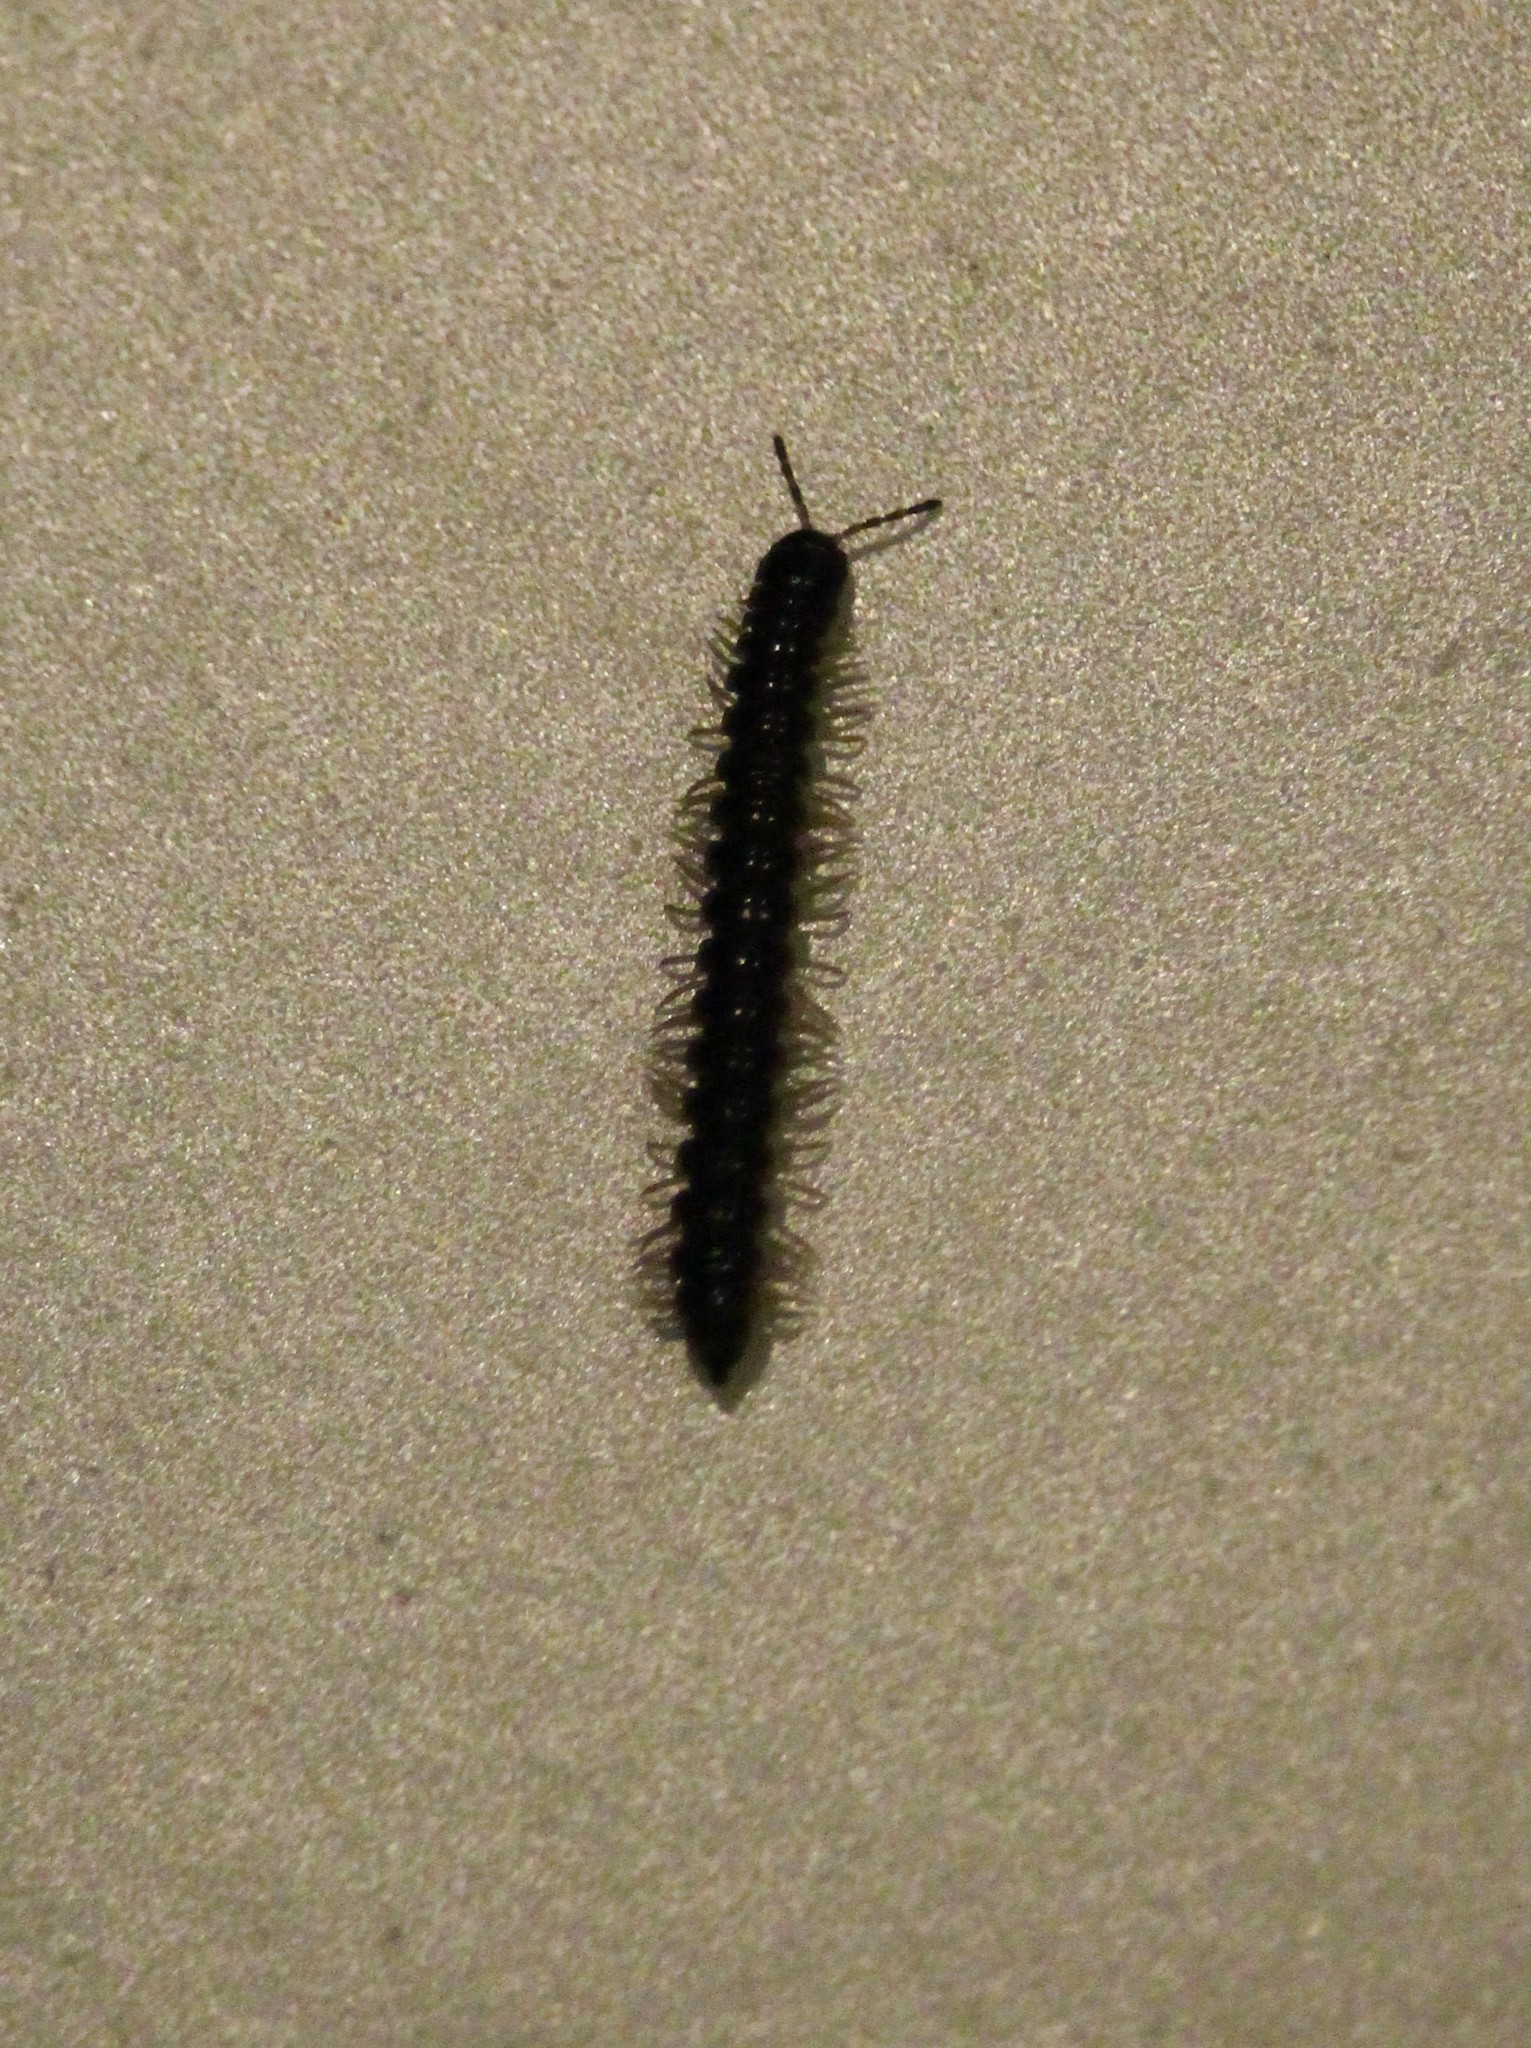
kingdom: Animalia
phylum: Arthropoda
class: Diplopoda
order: Polydesmida
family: Paradoxosomatidae
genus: Oxidus
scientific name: Oxidus gracilis
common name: Greenhouse millipede
